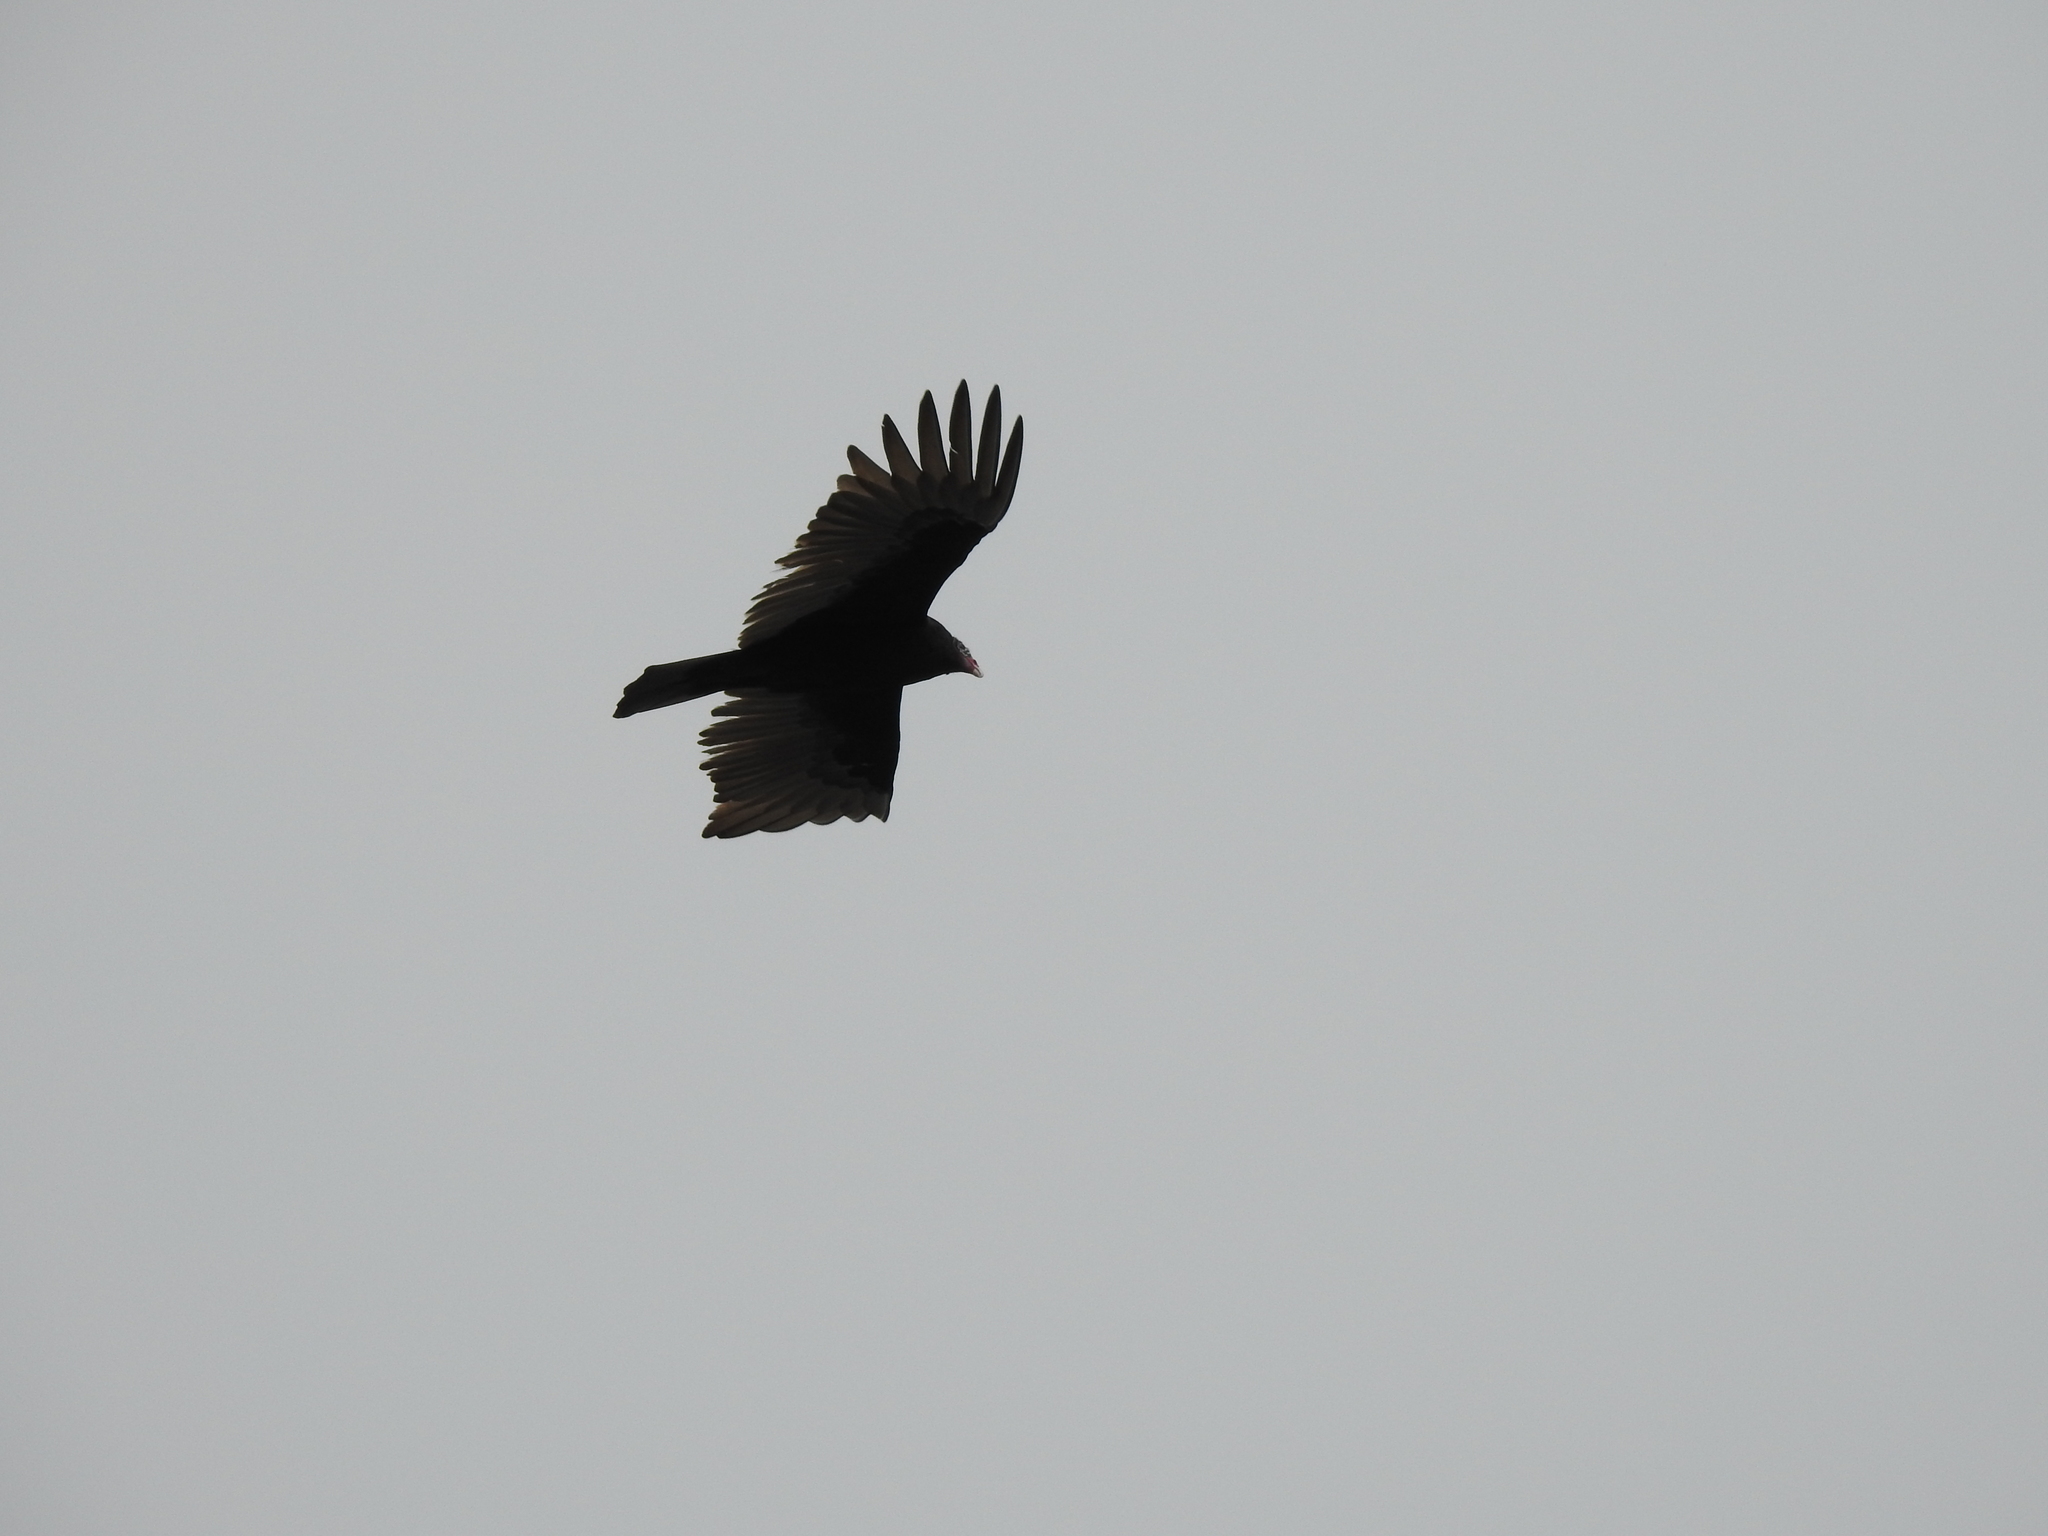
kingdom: Animalia
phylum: Chordata
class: Aves
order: Accipitriformes
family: Cathartidae
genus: Cathartes
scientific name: Cathartes aura
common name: Turkey vulture
